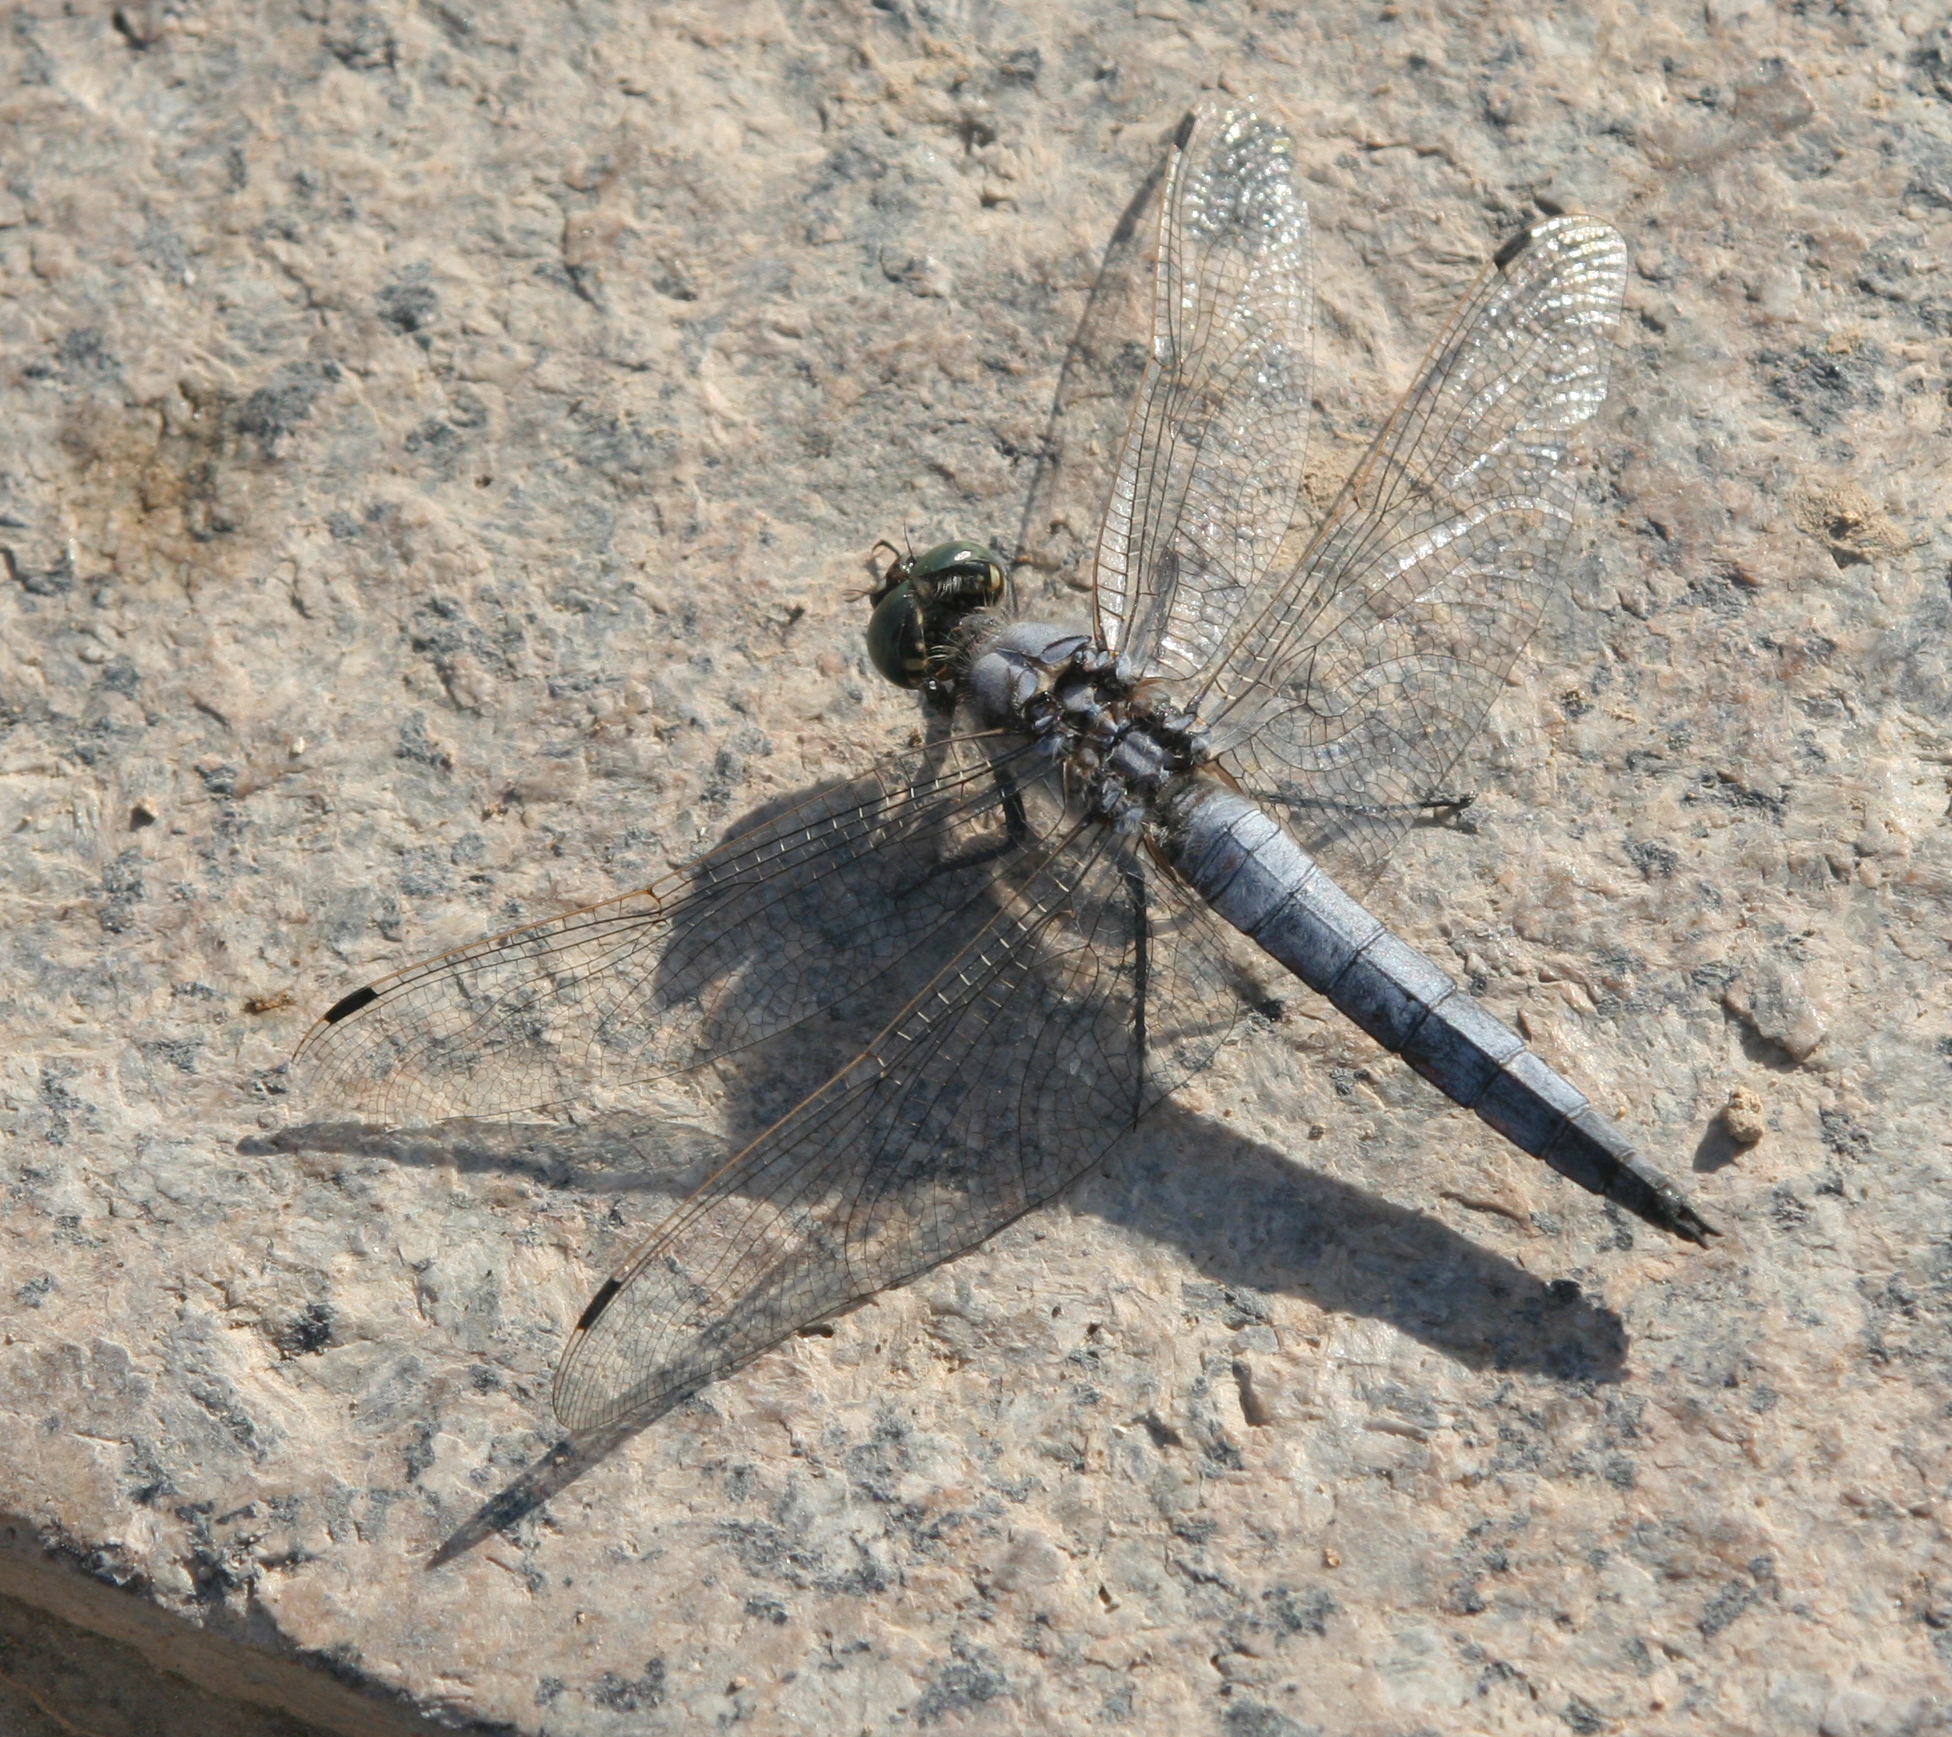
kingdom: Animalia
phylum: Arthropoda
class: Insecta
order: Odonata
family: Libellulidae
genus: Orthetrum
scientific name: Orthetrum cancellatum
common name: Black-tailed skimmer
